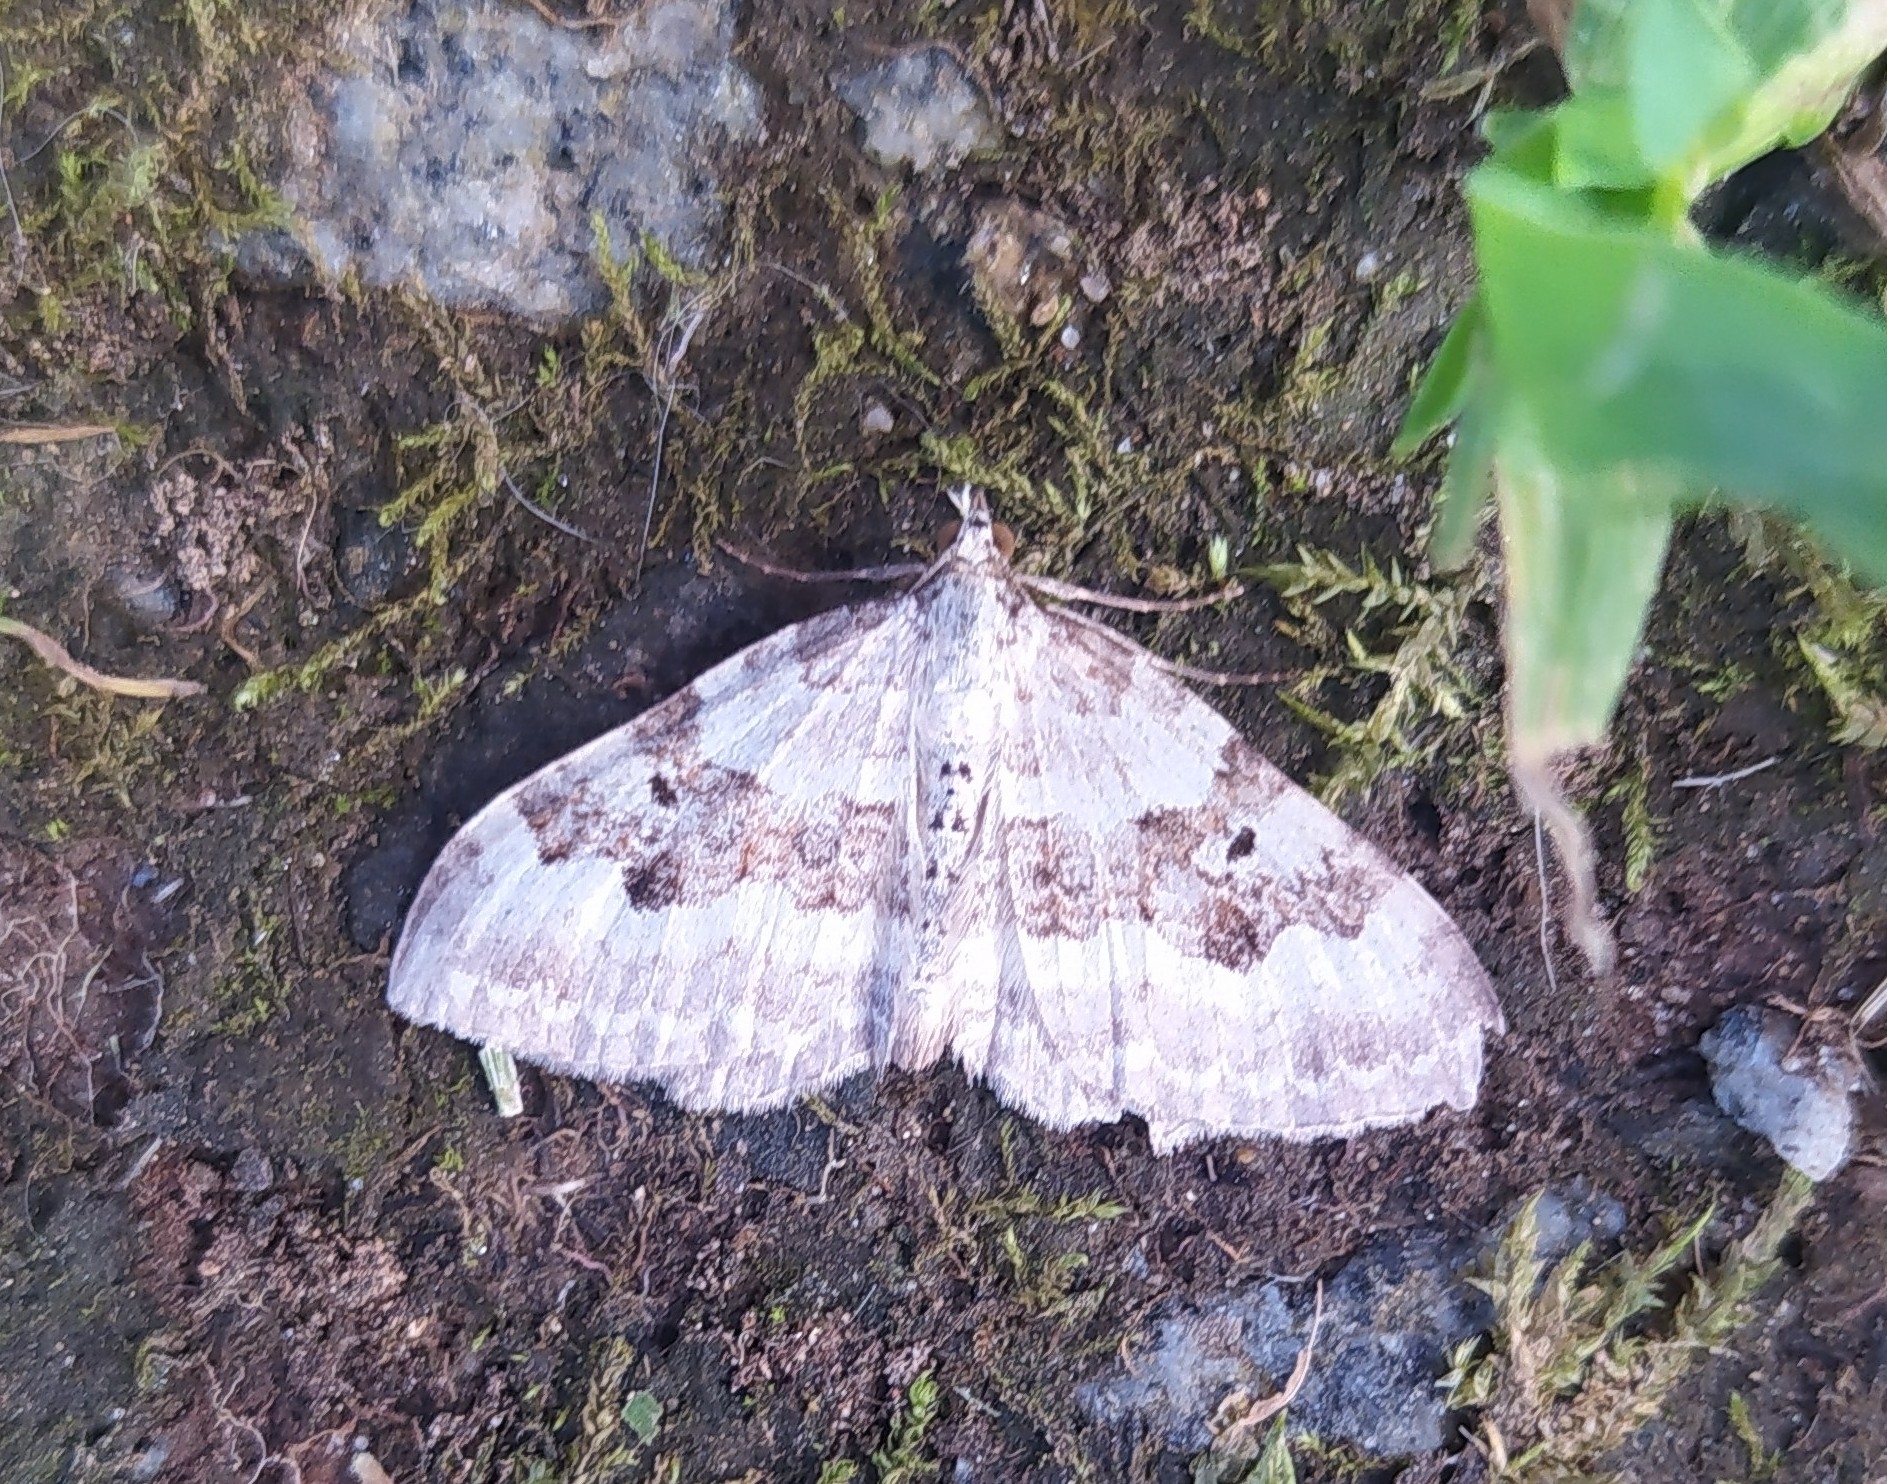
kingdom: Animalia
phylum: Arthropoda
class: Insecta
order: Lepidoptera
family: Geometridae
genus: Xanthorhoe
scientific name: Xanthorhoe montanata
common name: Silver-ground carpet
